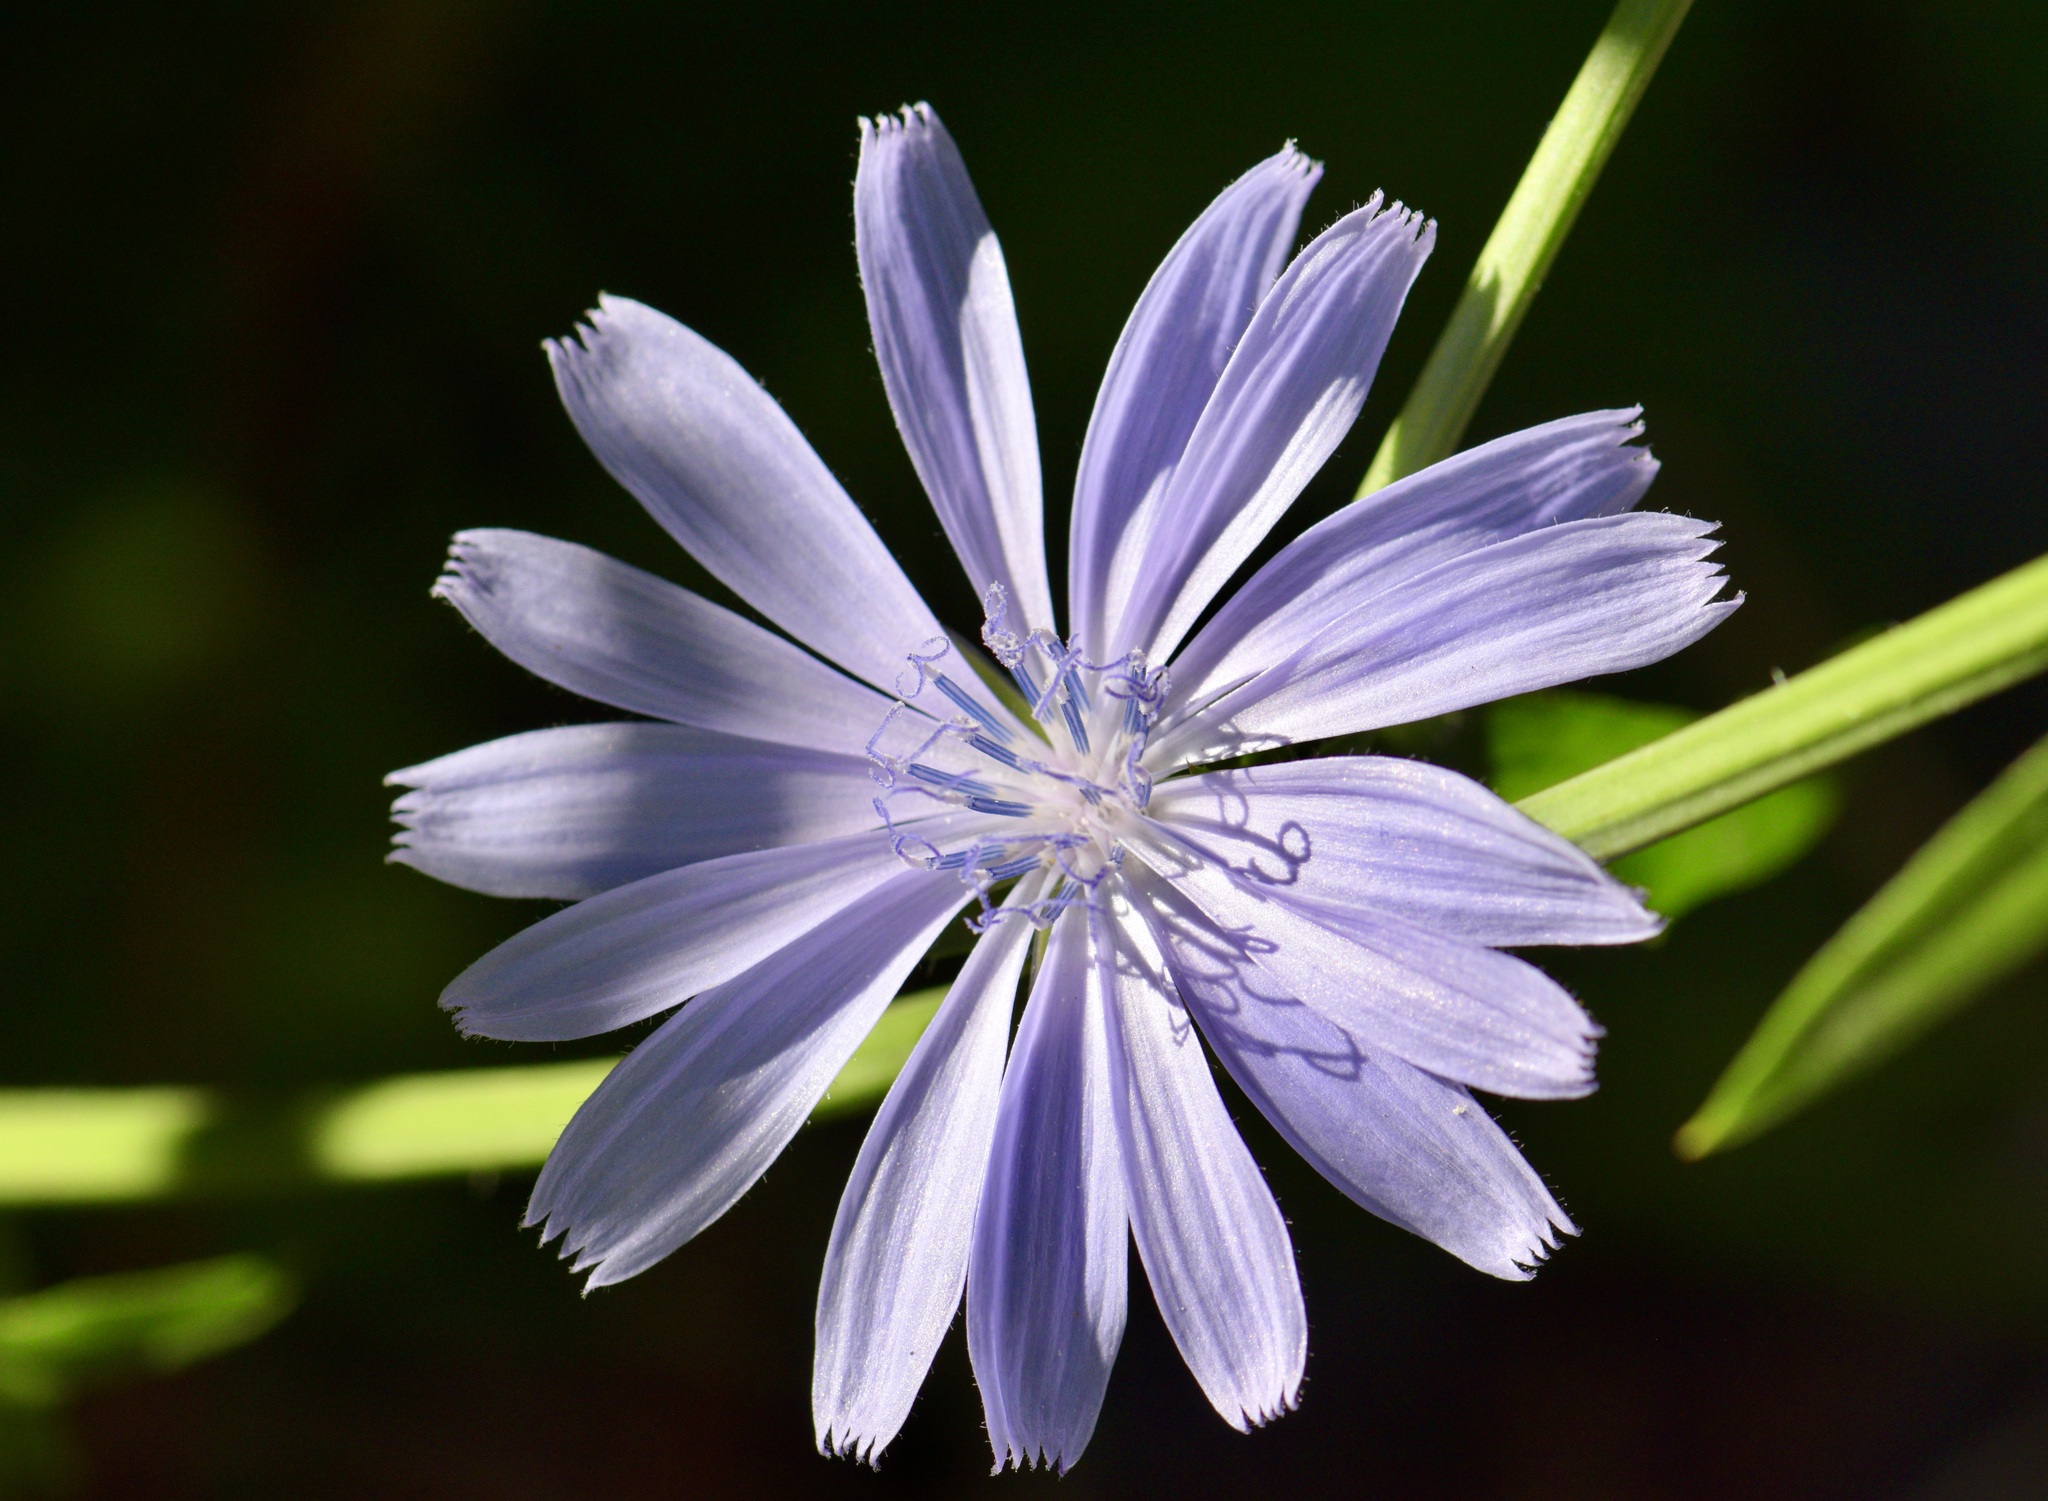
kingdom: Plantae
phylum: Tracheophyta
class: Magnoliopsida
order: Asterales
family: Asteraceae
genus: Cichorium
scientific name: Cichorium intybus
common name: Chicory
